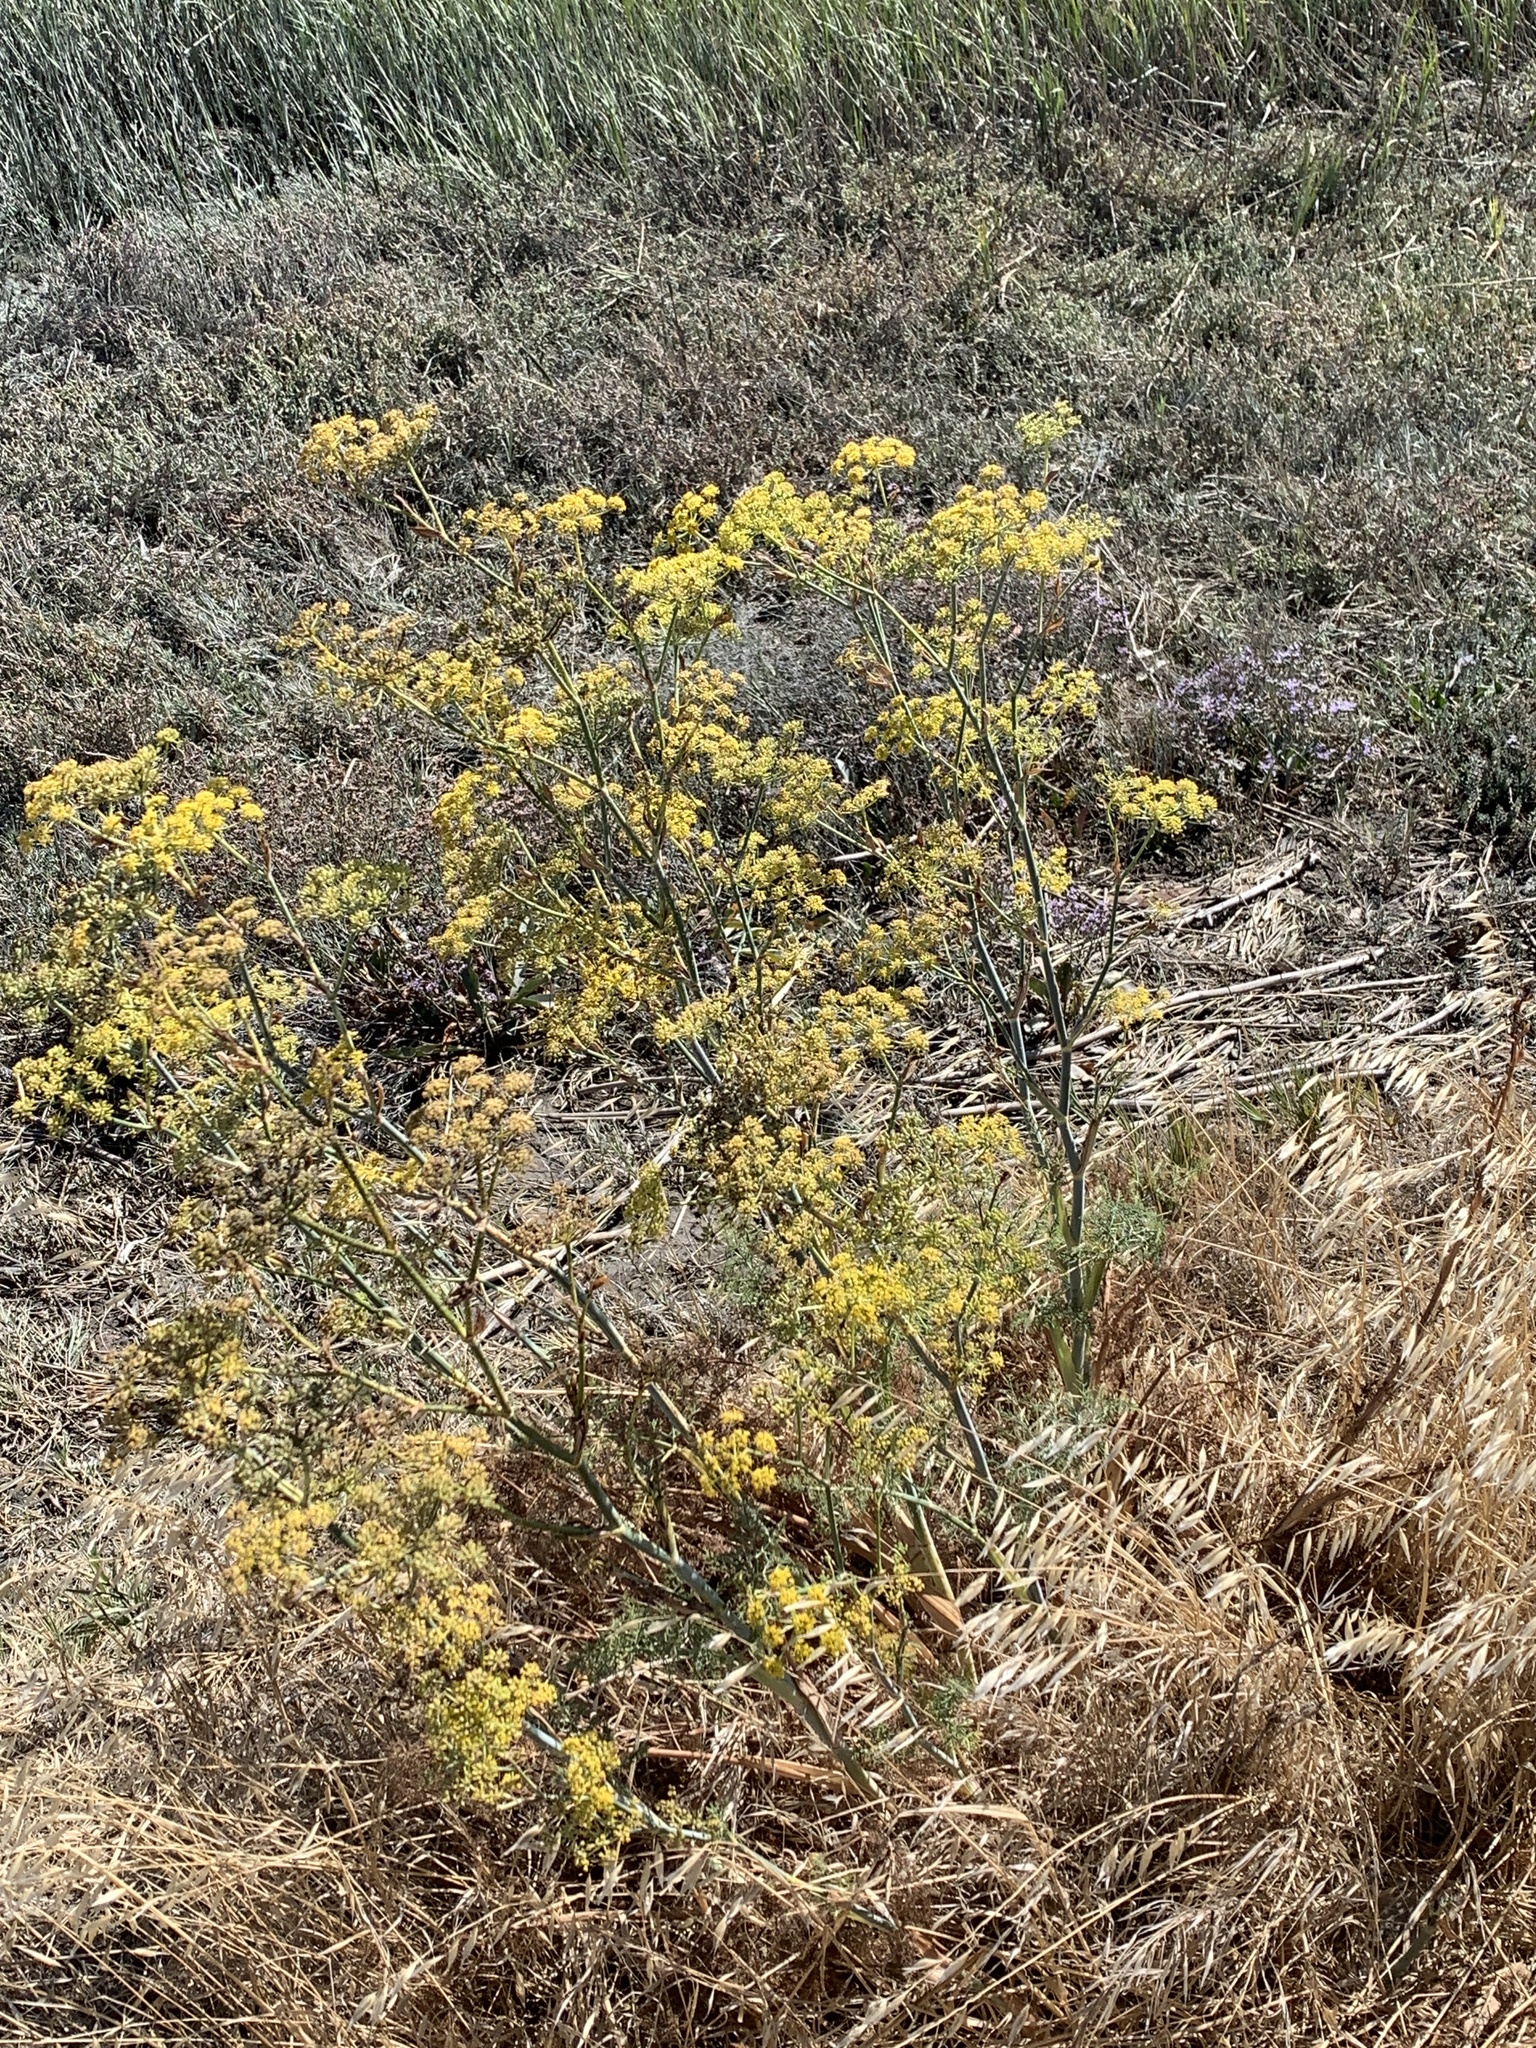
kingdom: Plantae
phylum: Tracheophyta
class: Magnoliopsida
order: Apiales
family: Apiaceae
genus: Foeniculum
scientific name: Foeniculum vulgare
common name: Fennel
